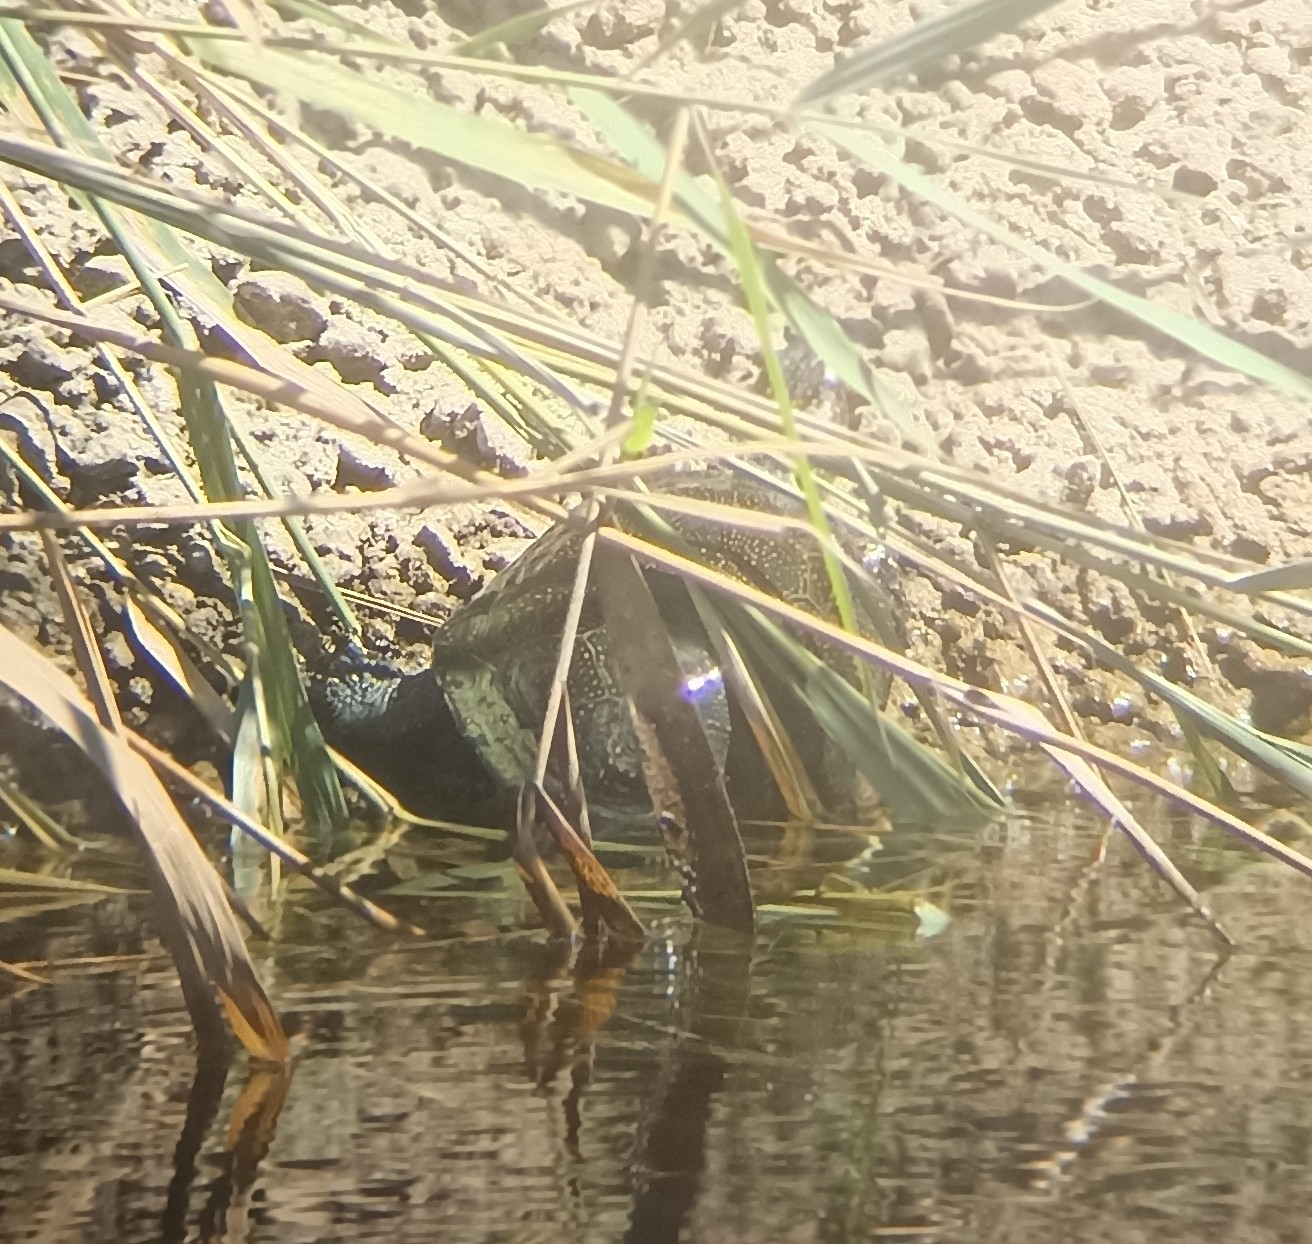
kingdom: Animalia
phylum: Chordata
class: Testudines
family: Emydidae
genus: Emys
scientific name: Emys orbicularis
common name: European pond turtle
